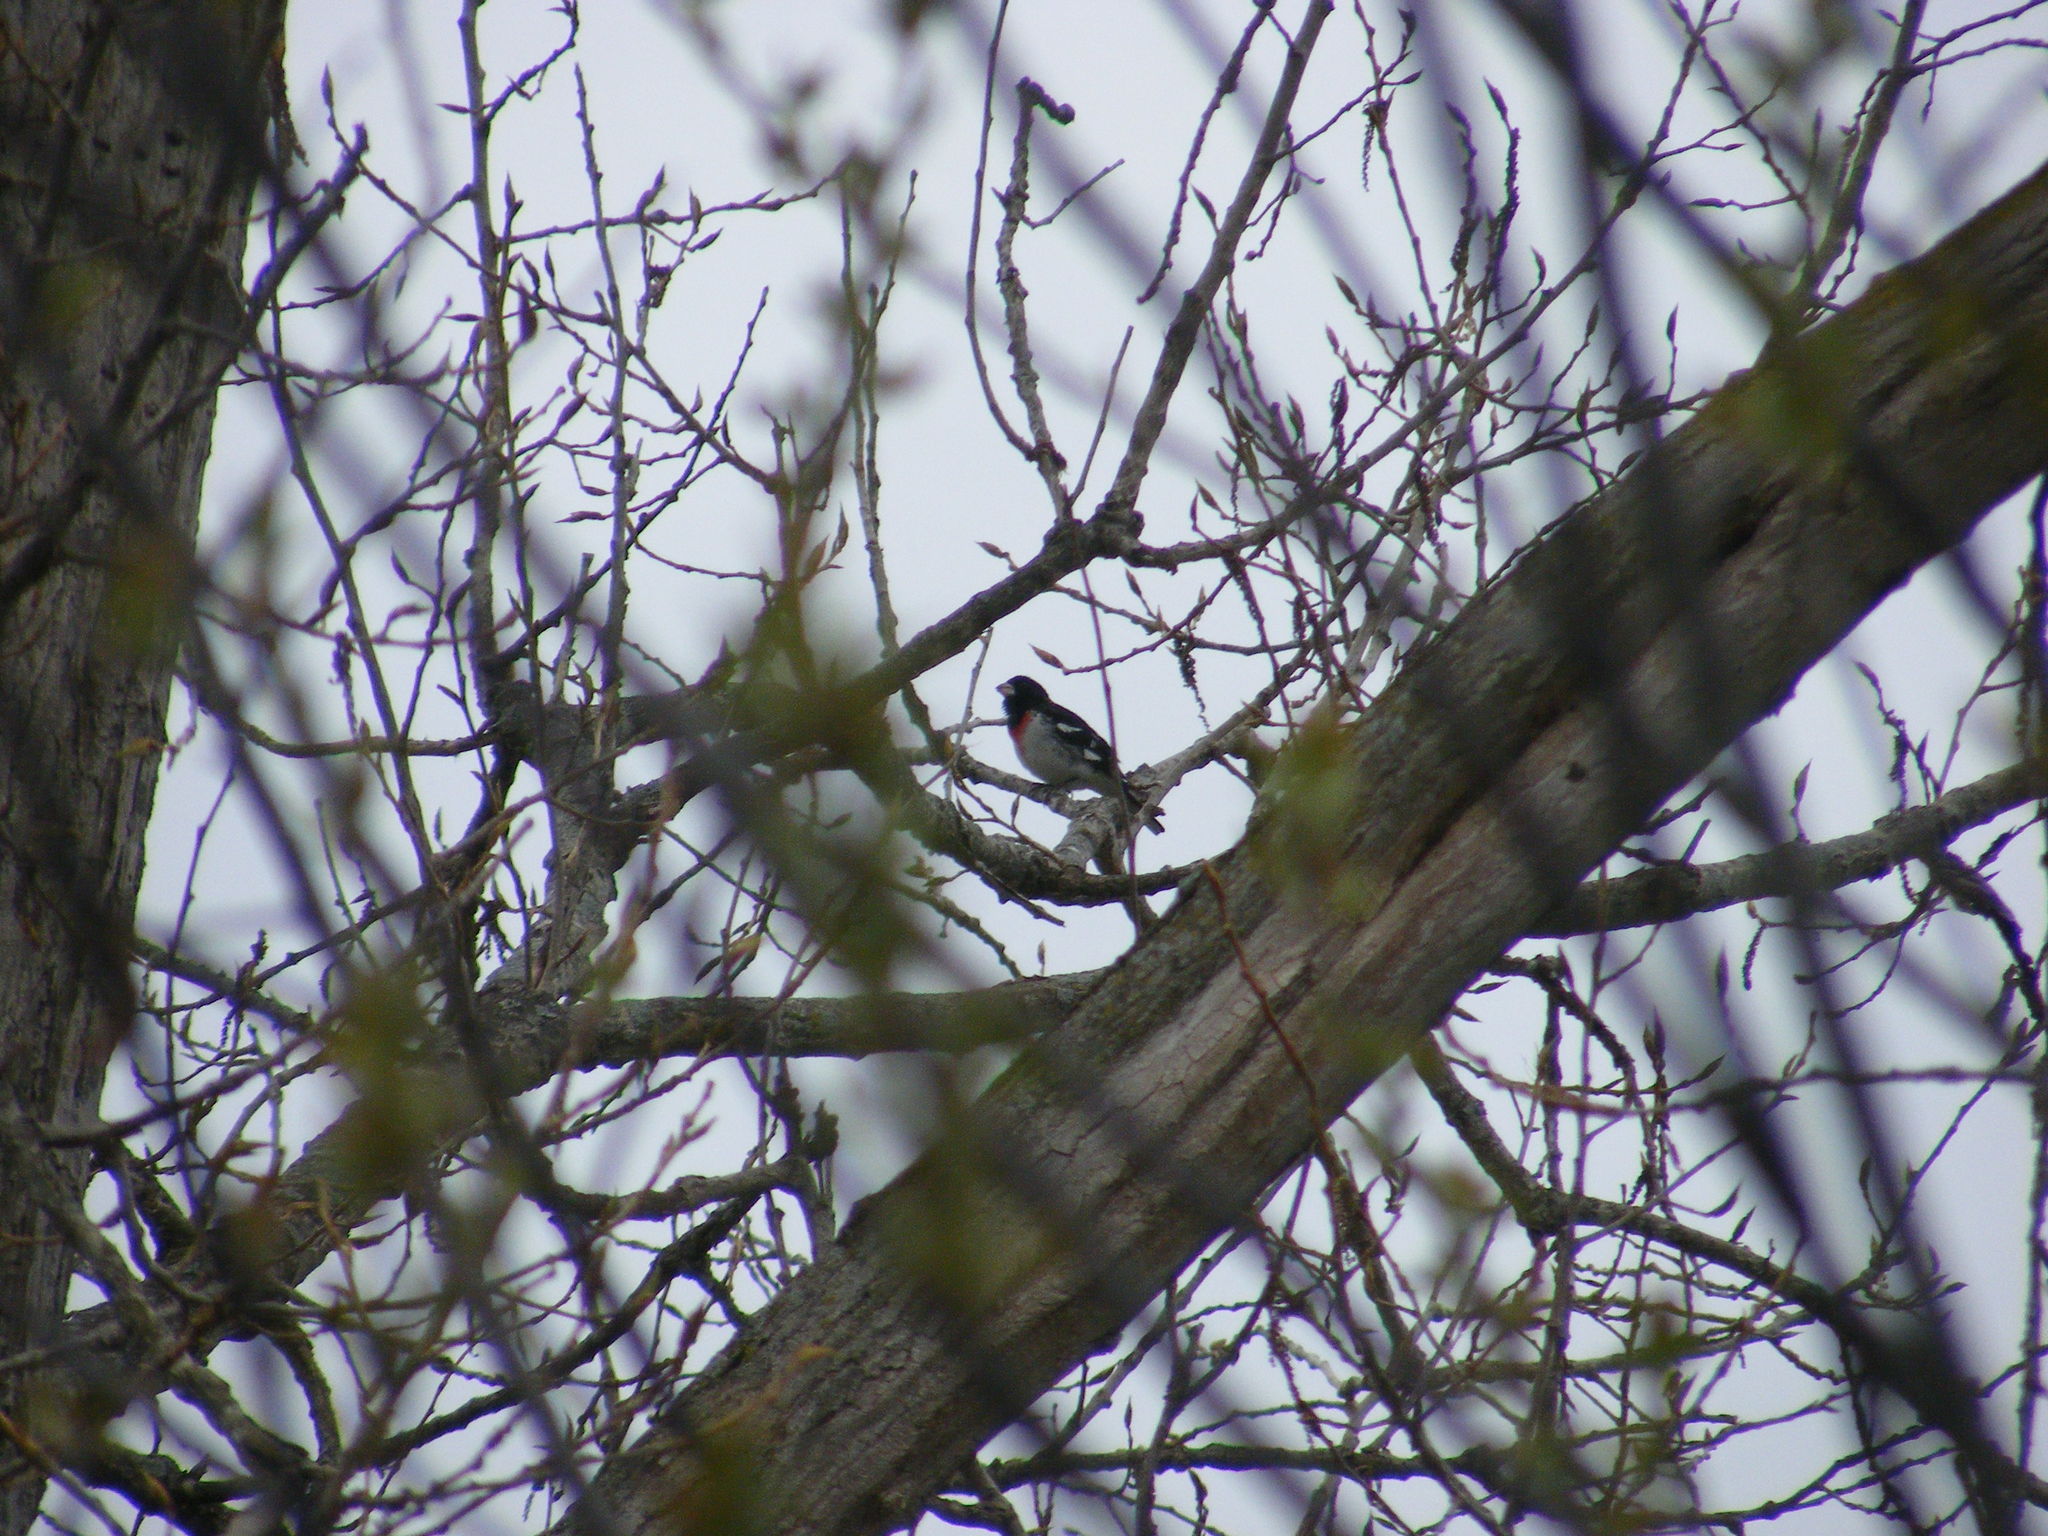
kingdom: Animalia
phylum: Chordata
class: Aves
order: Passeriformes
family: Cardinalidae
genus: Pheucticus
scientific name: Pheucticus ludovicianus
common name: Rose-breasted grosbeak
